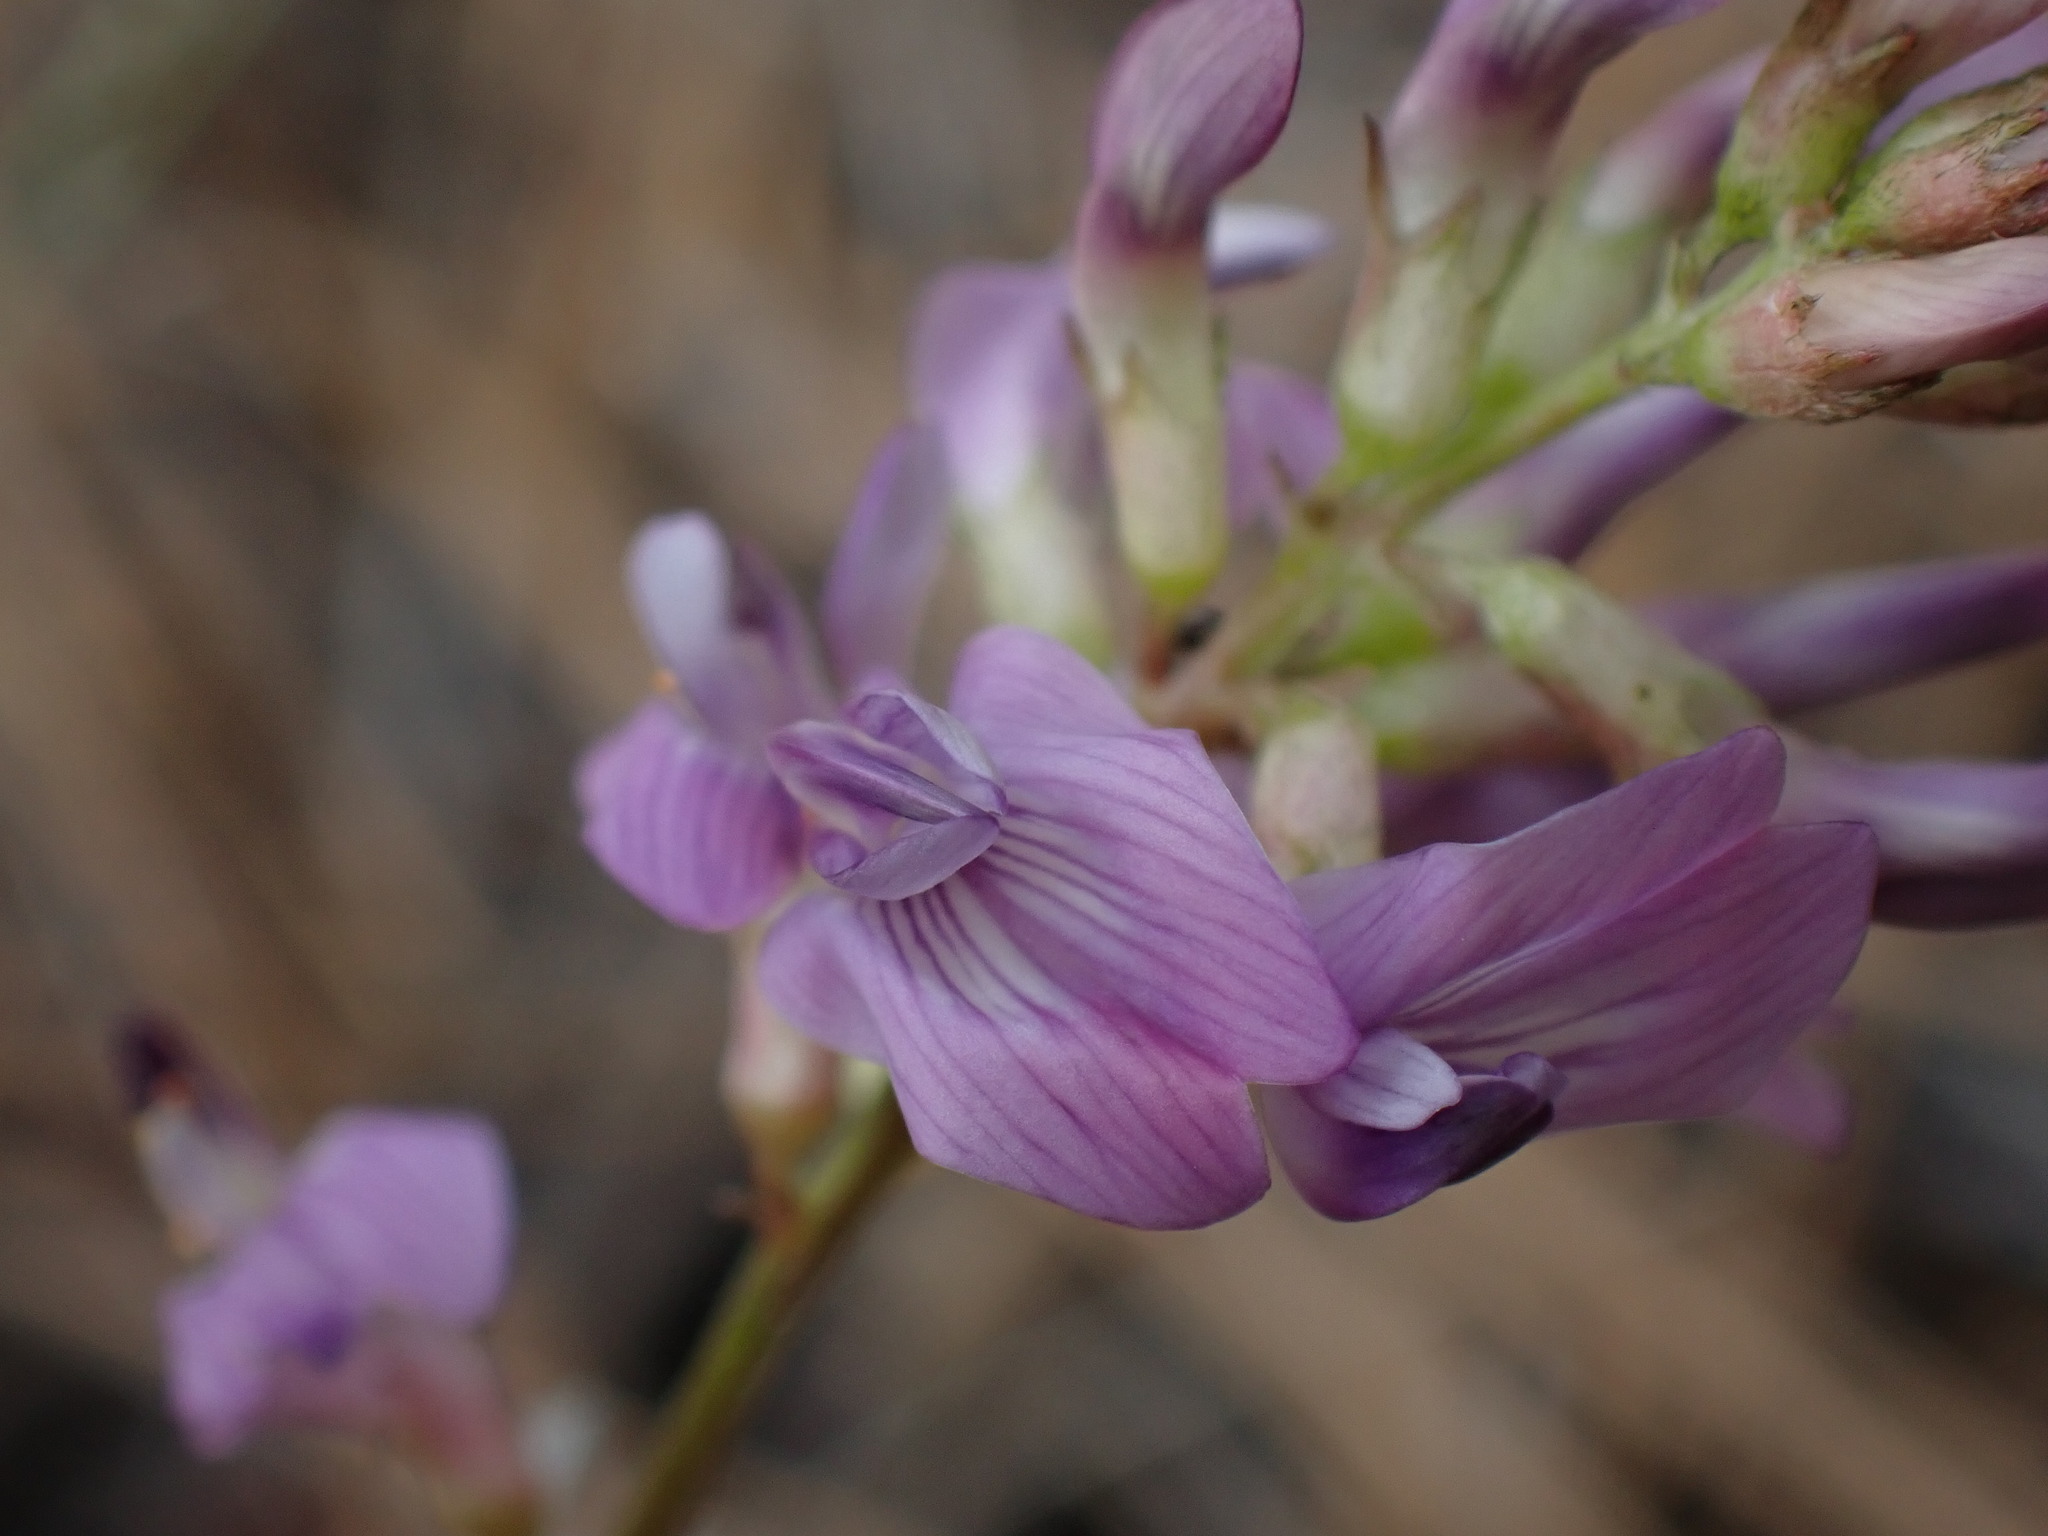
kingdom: Plantae
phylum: Tracheophyta
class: Magnoliopsida
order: Fabales
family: Fabaceae
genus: Astragalus
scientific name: Astragalus miser
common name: Timber milkvetch
